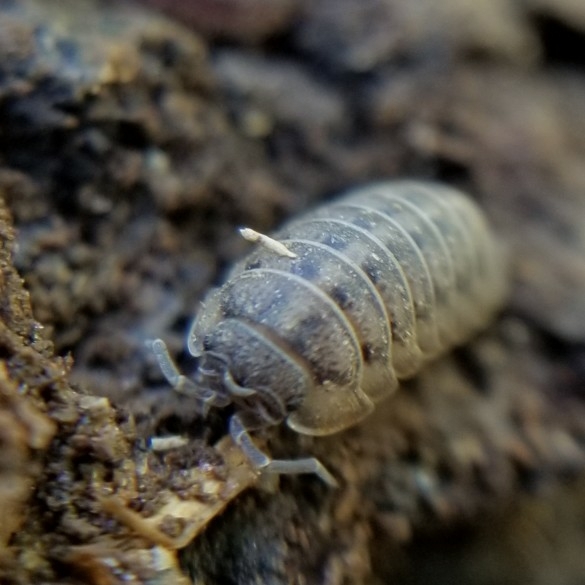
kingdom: Animalia
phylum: Arthropoda
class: Malacostraca
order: Isopoda
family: Armadillidiidae
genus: Armadillidium
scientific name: Armadillidium nasatum
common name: Isopod
